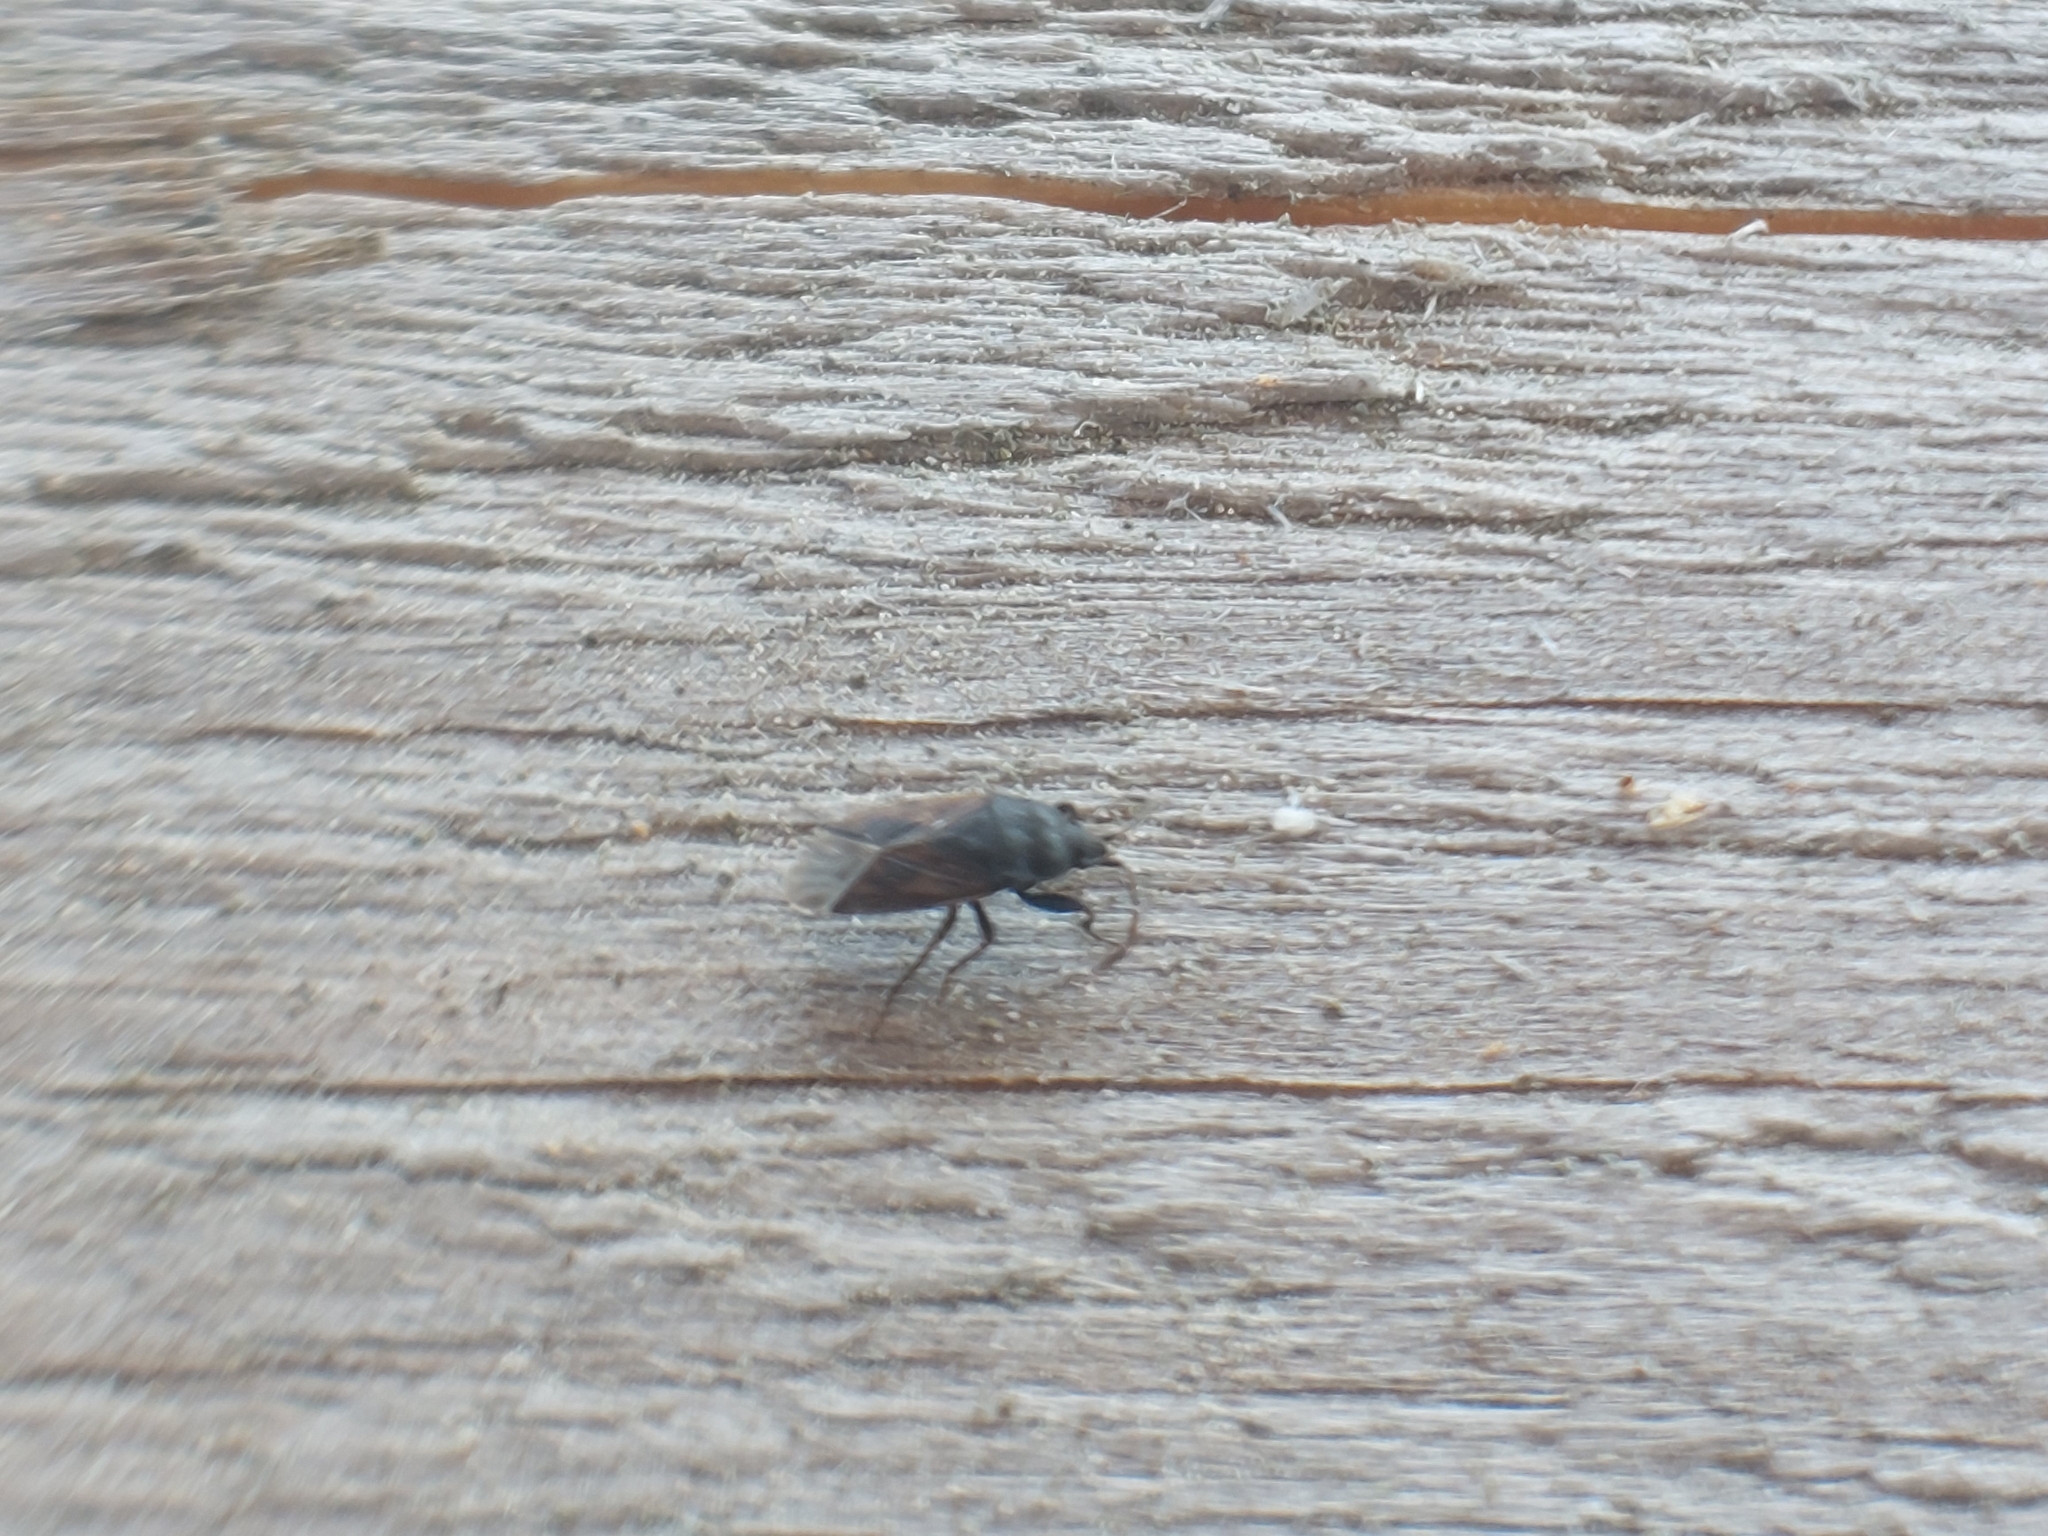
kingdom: Animalia
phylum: Arthropoda
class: Insecta
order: Hemiptera
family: Rhyparochromidae
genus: Drymus
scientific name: Drymus sylvaticus
